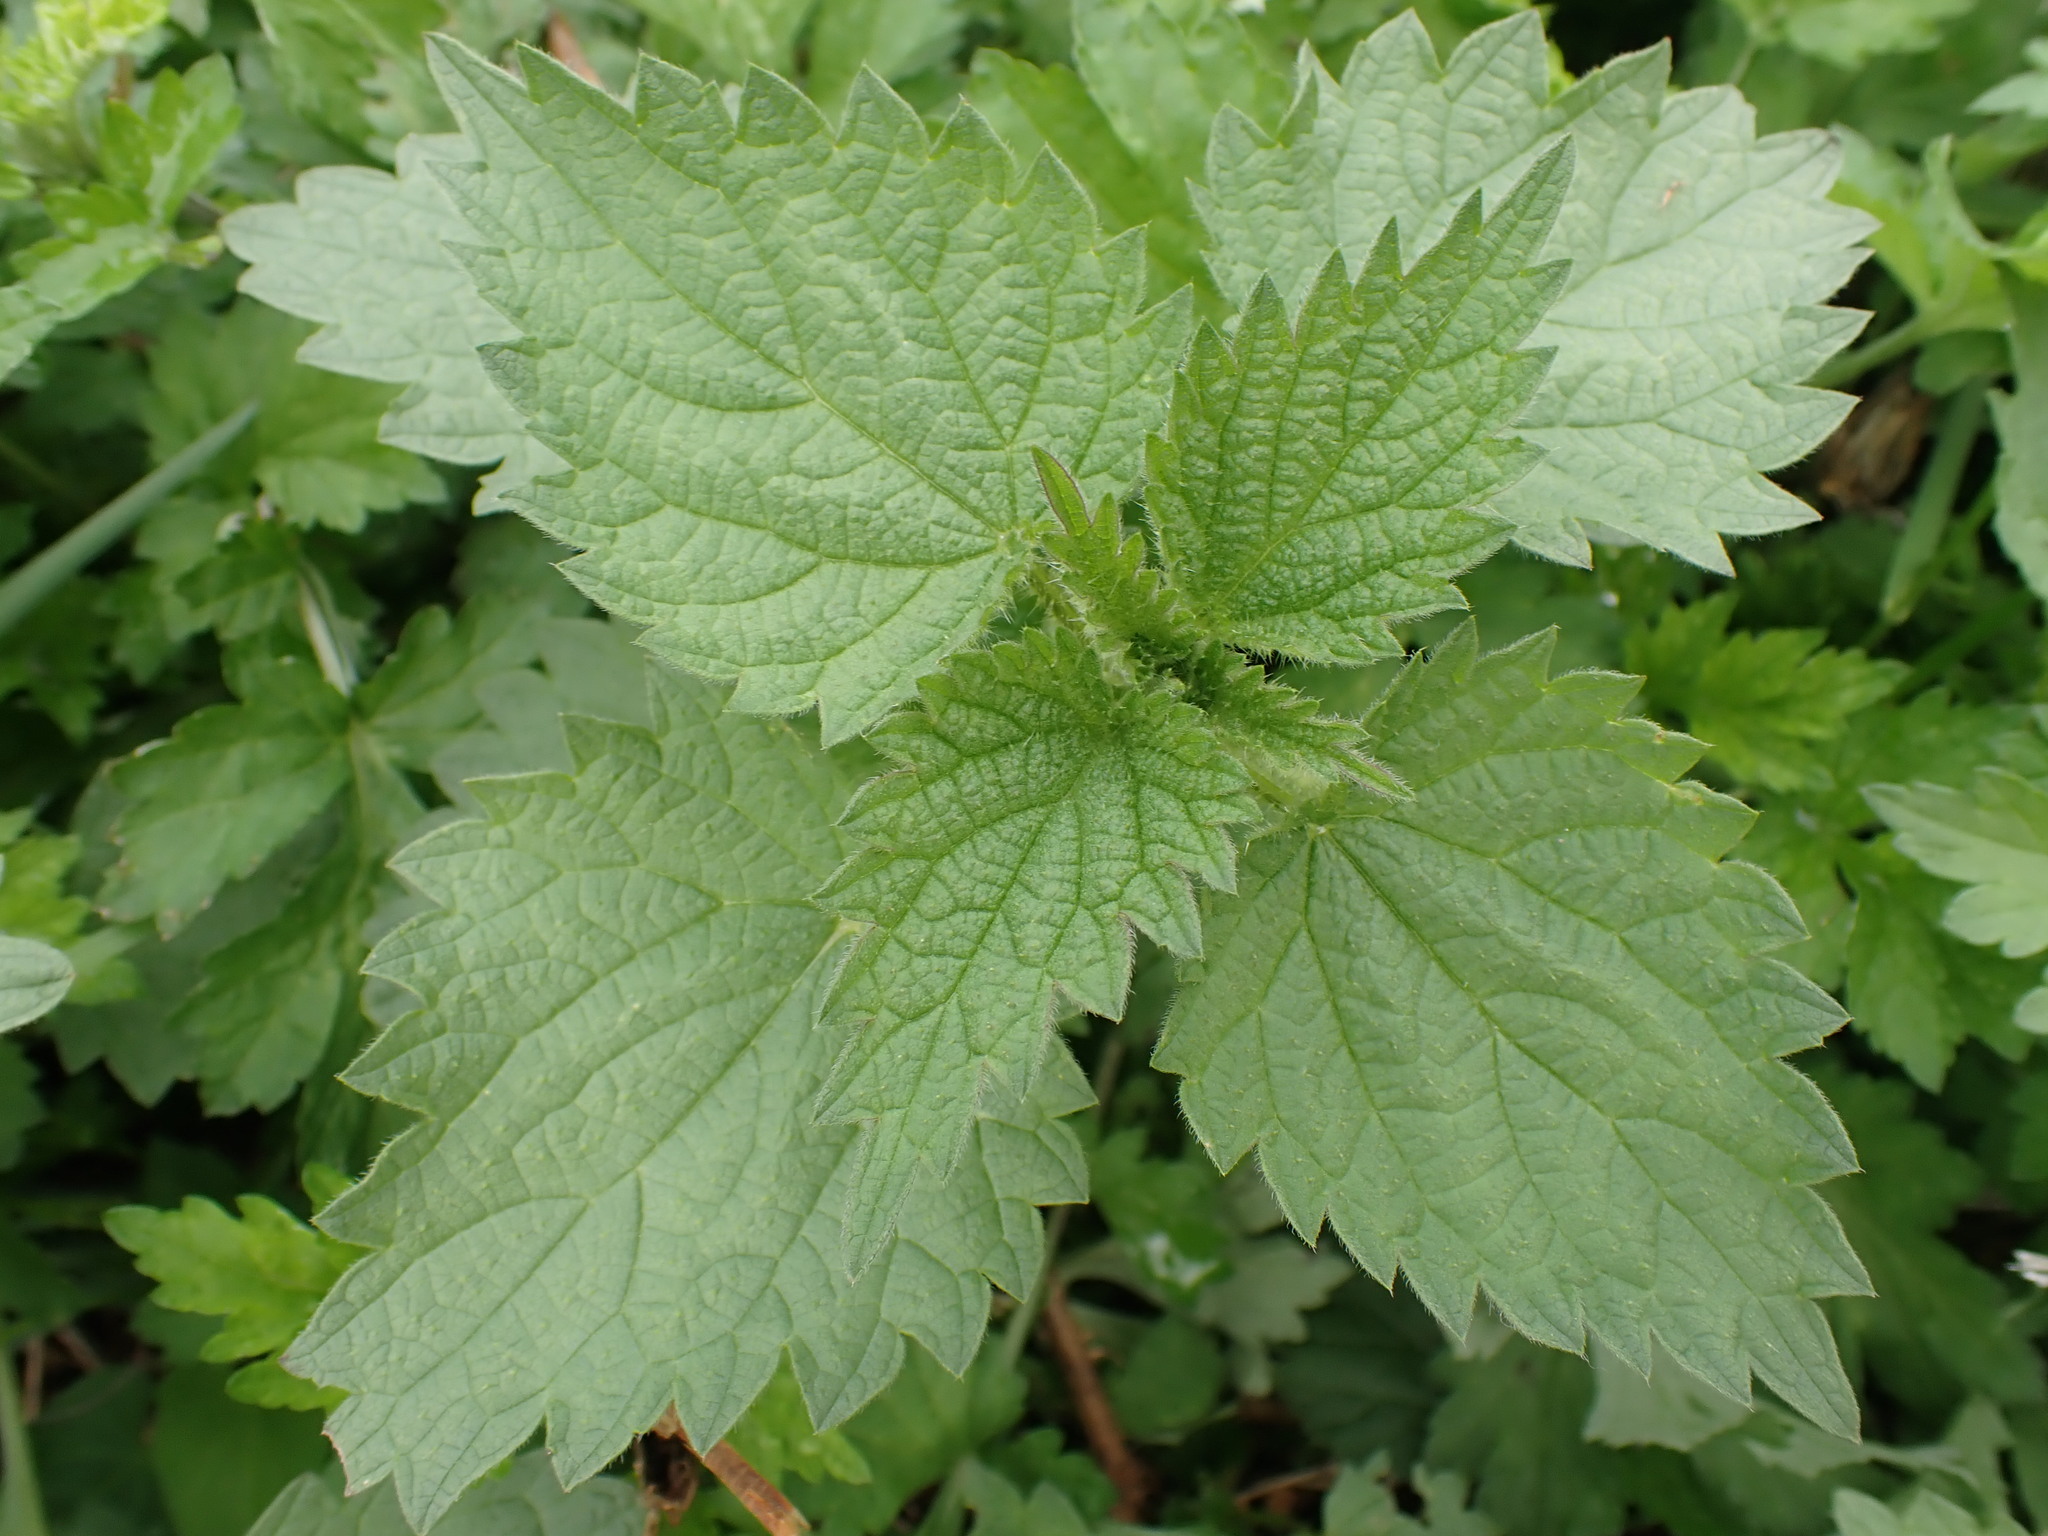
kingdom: Plantae
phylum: Tracheophyta
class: Magnoliopsida
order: Rosales
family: Urticaceae
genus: Urtica
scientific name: Urtica dioica
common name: Common nettle
